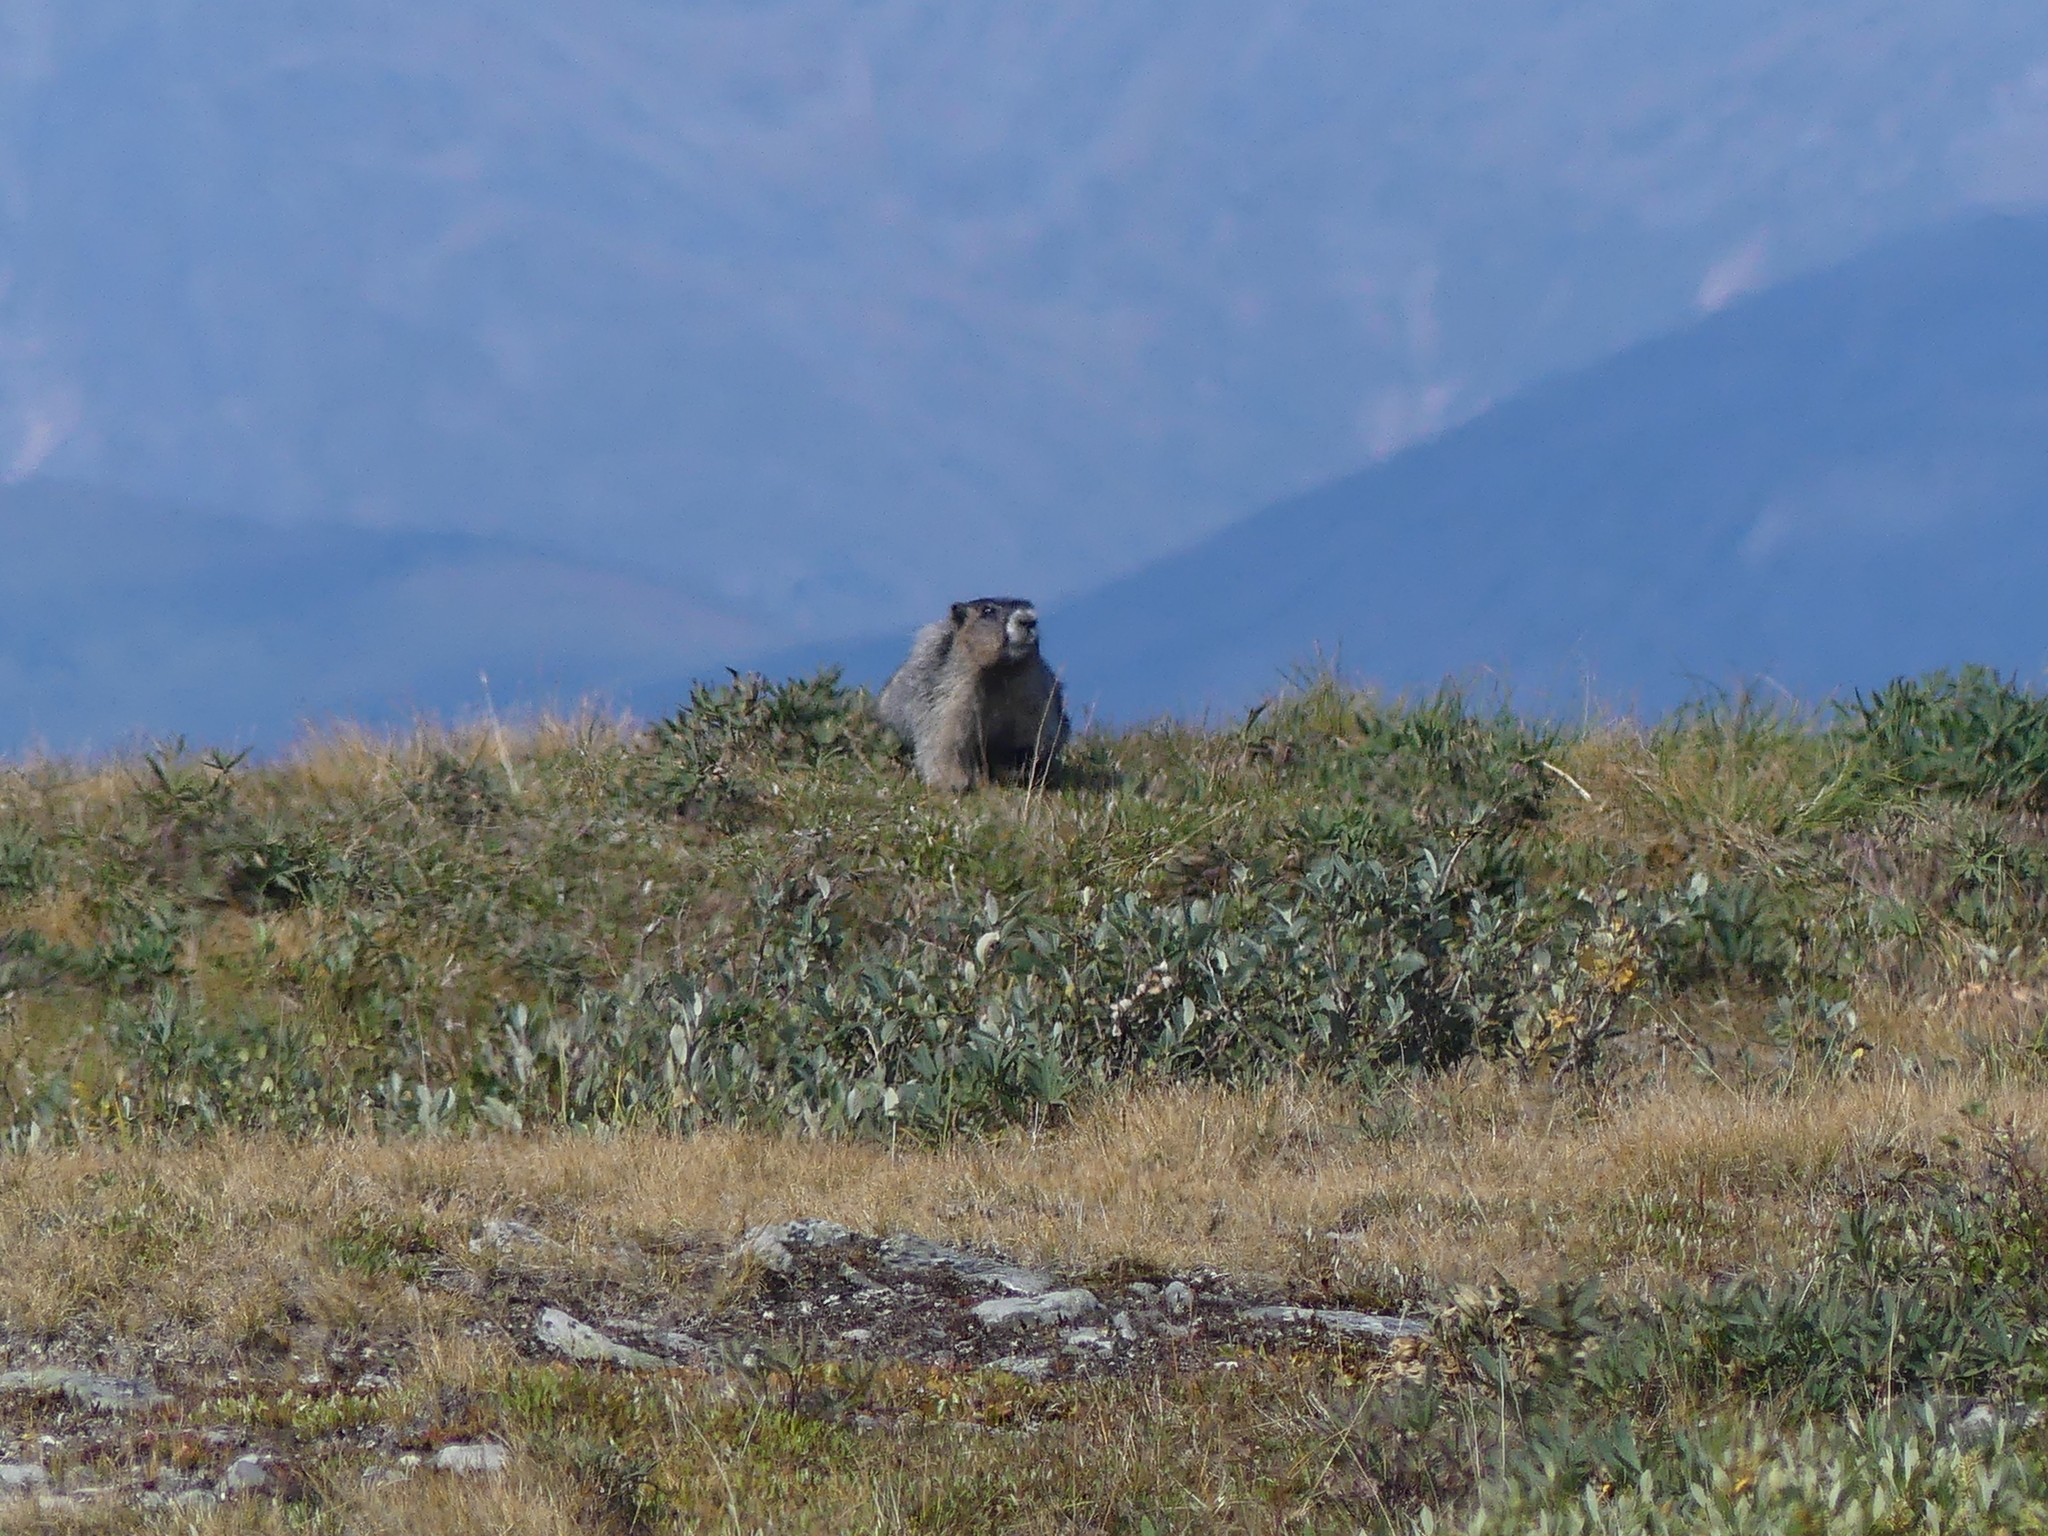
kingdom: Animalia
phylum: Chordata
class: Mammalia
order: Rodentia
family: Sciuridae
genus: Marmota
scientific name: Marmota caligata
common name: Hoary marmot
